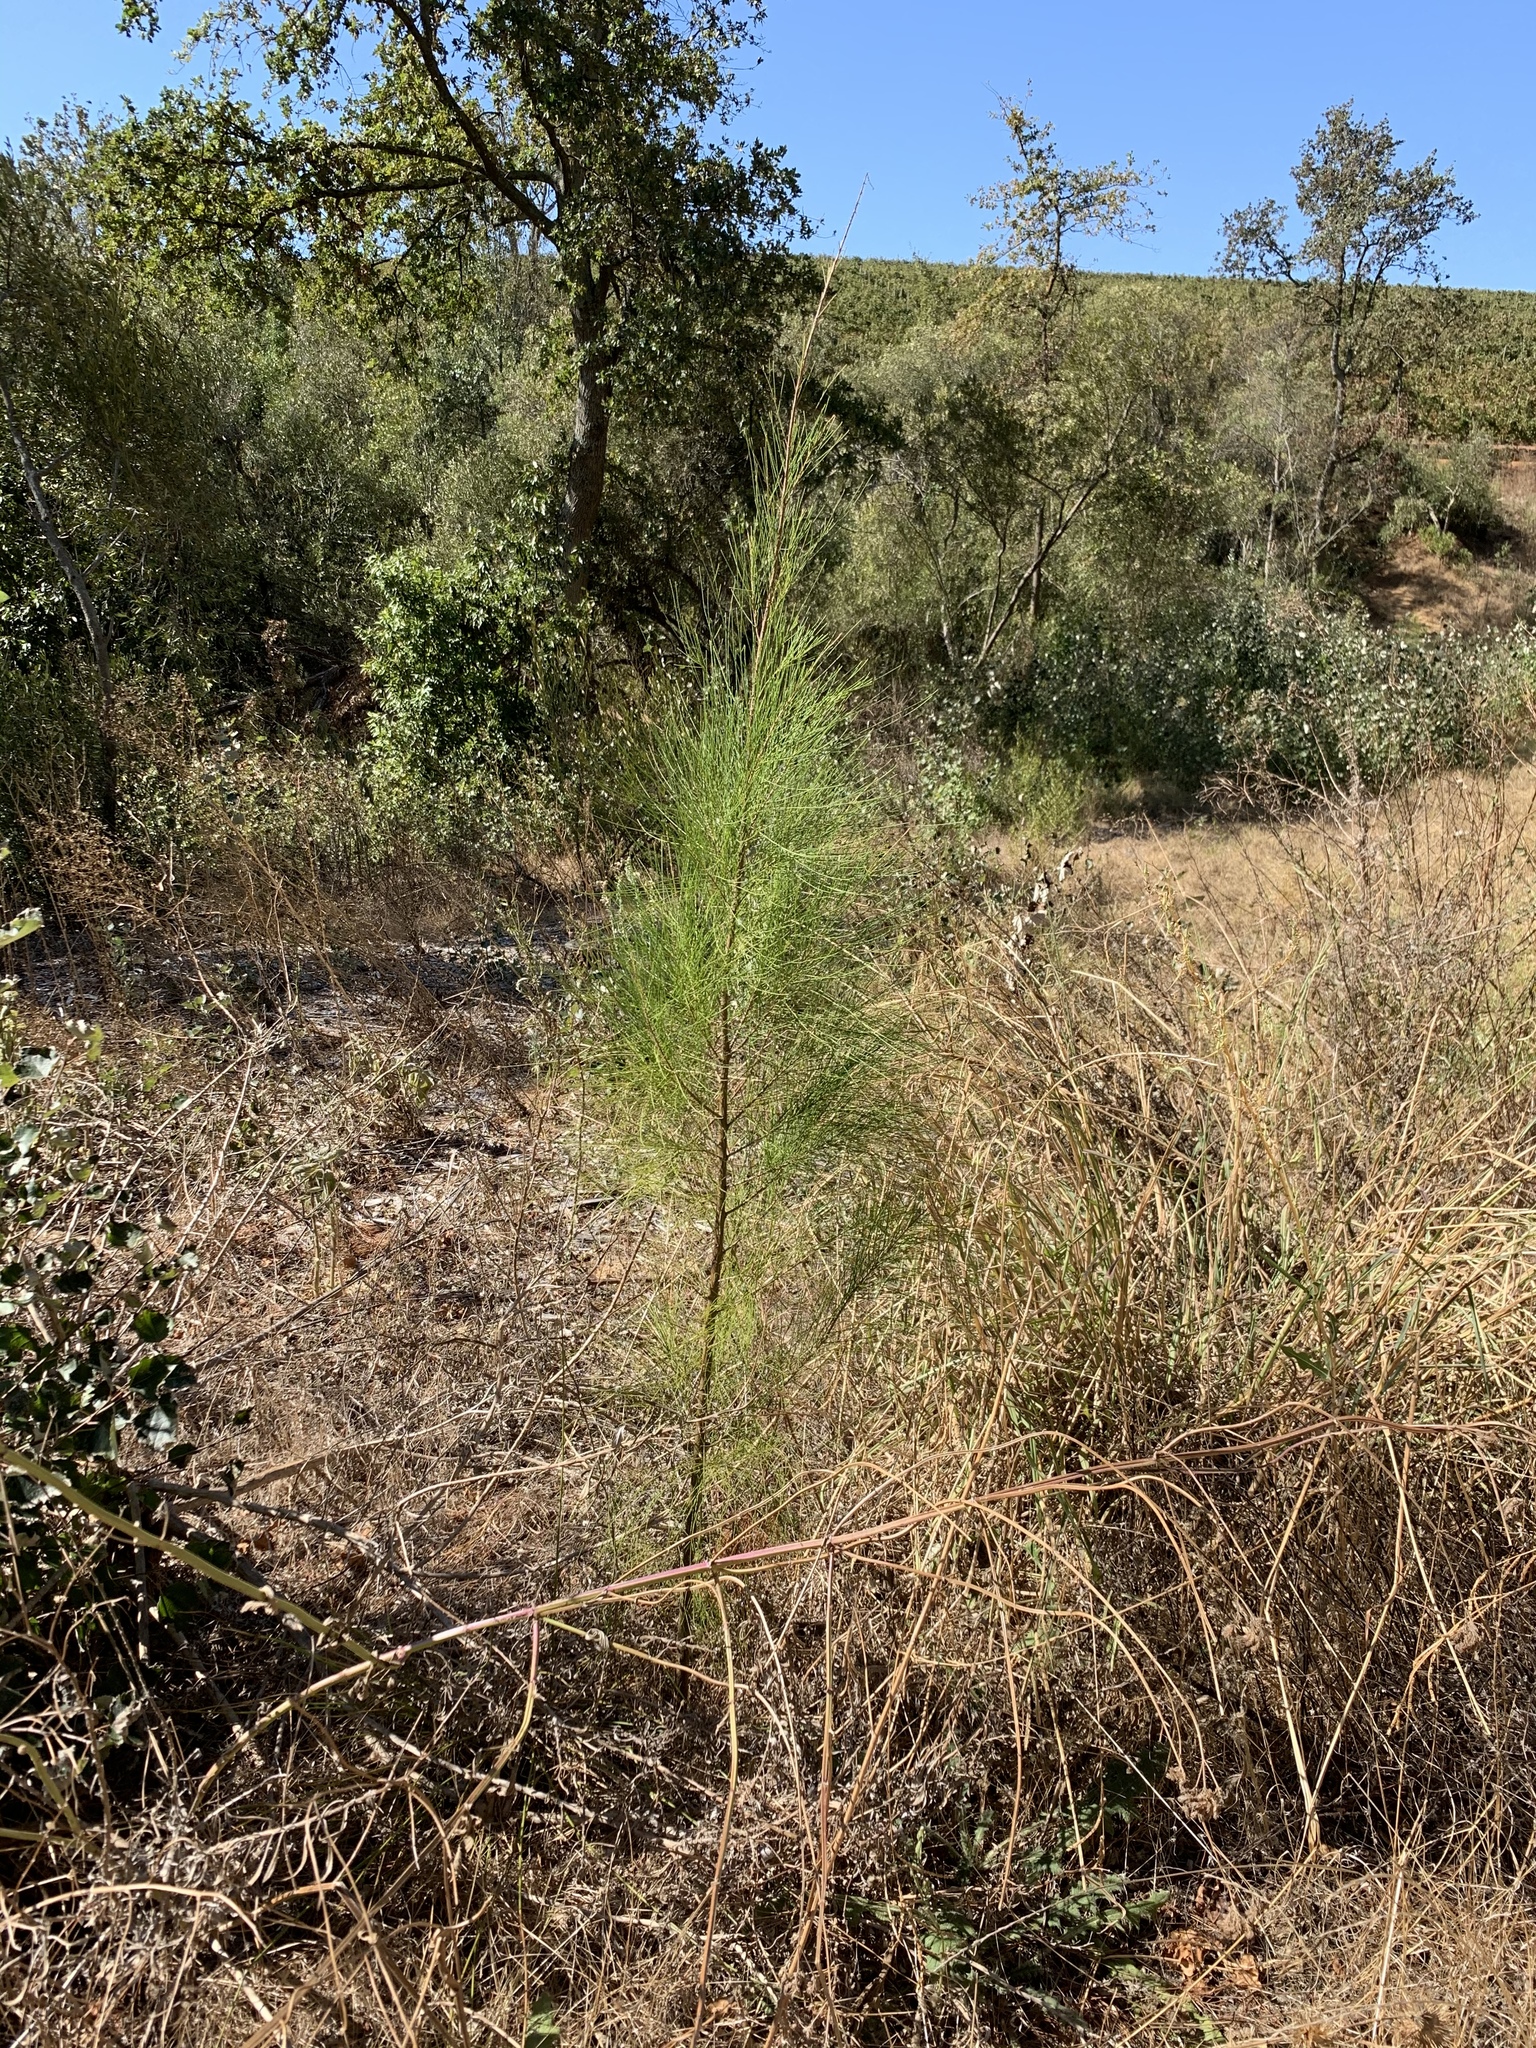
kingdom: Plantae
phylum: Tracheophyta
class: Magnoliopsida
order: Fagales
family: Casuarinaceae
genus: Casuarina
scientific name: Casuarina cunninghamiana
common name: River sheoak
